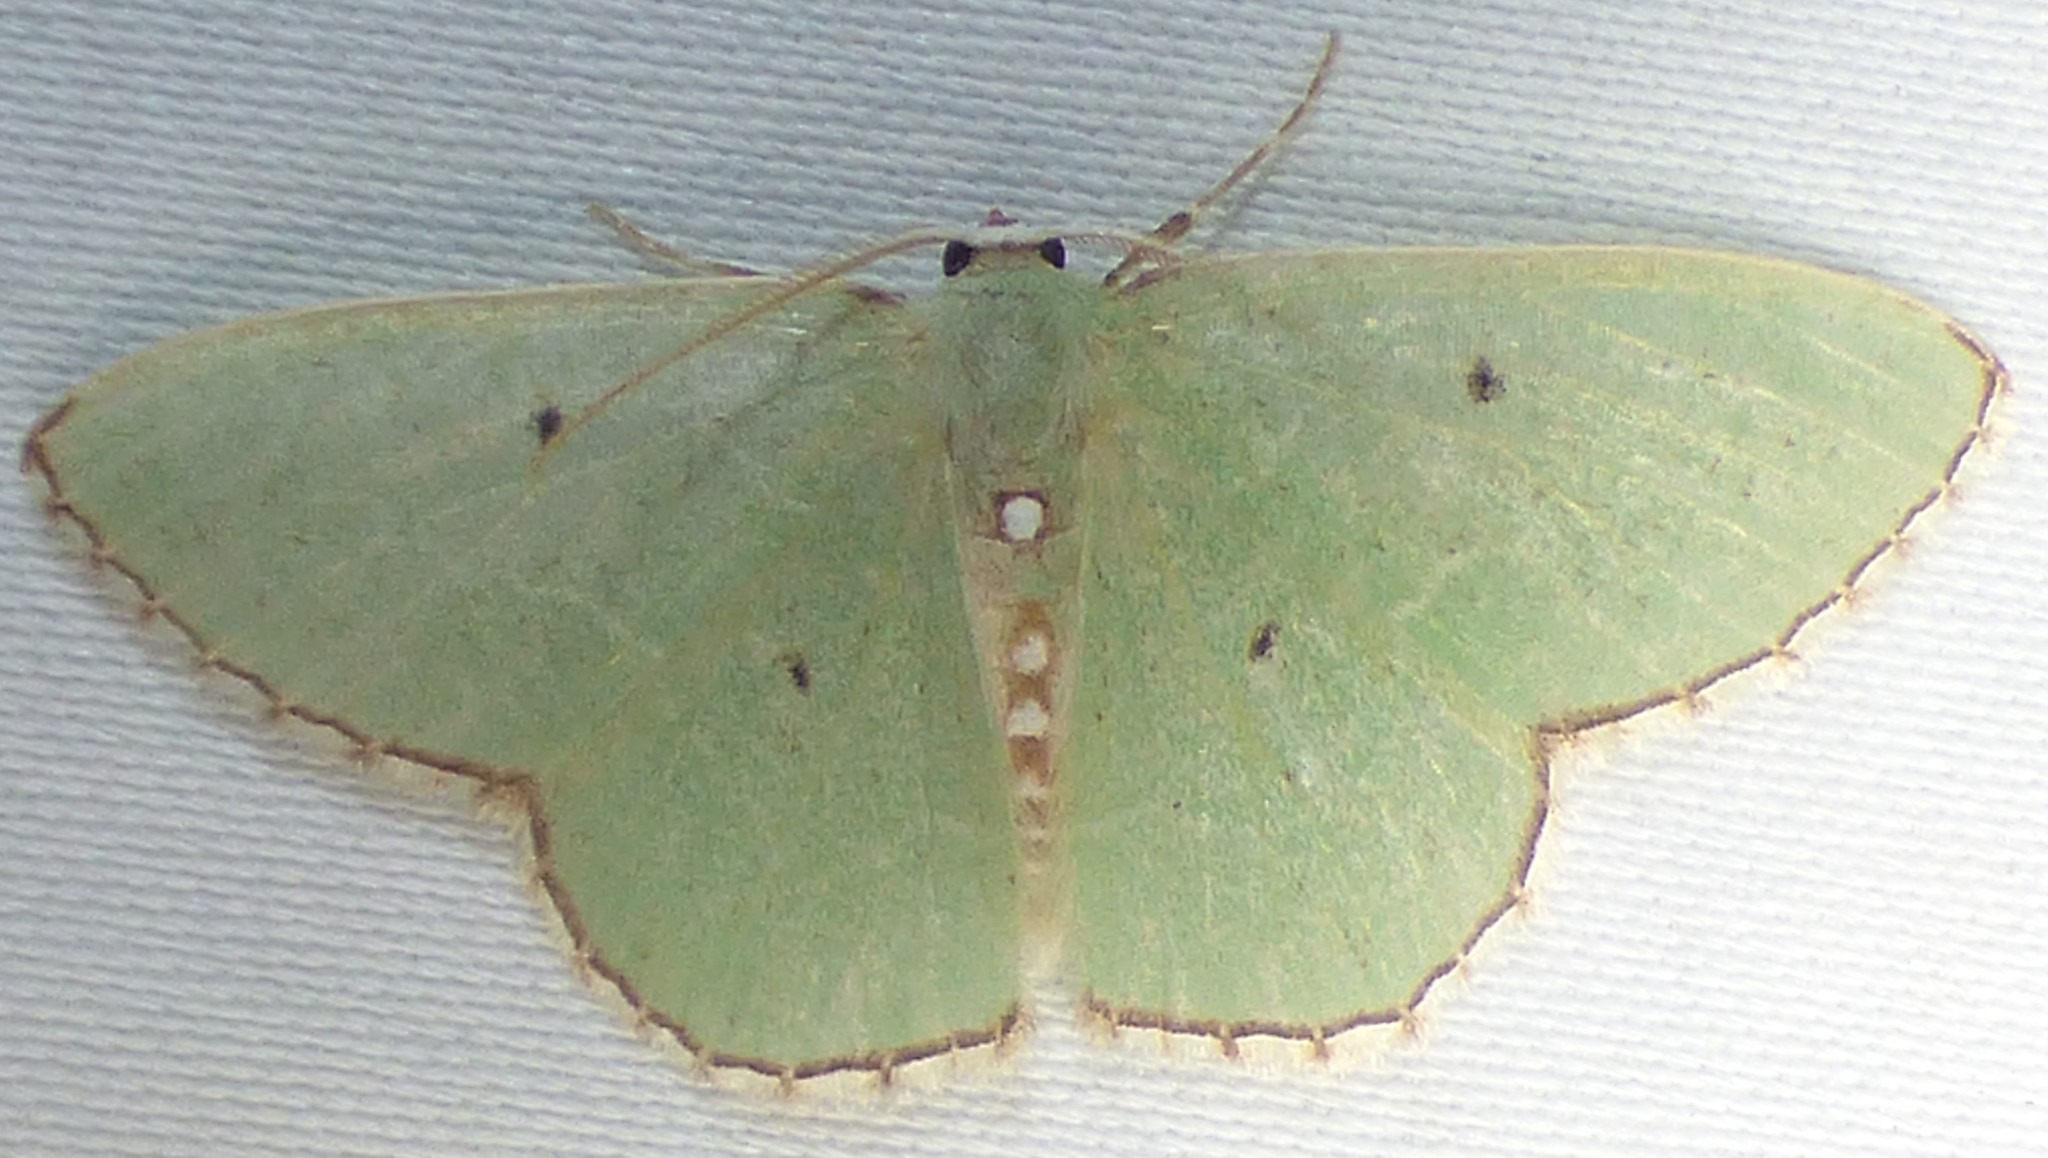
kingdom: Animalia
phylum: Arthropoda
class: Insecta
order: Lepidoptera
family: Geometridae
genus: Nemoria
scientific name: Nemoria lixaria
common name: Red-bordered emerald
